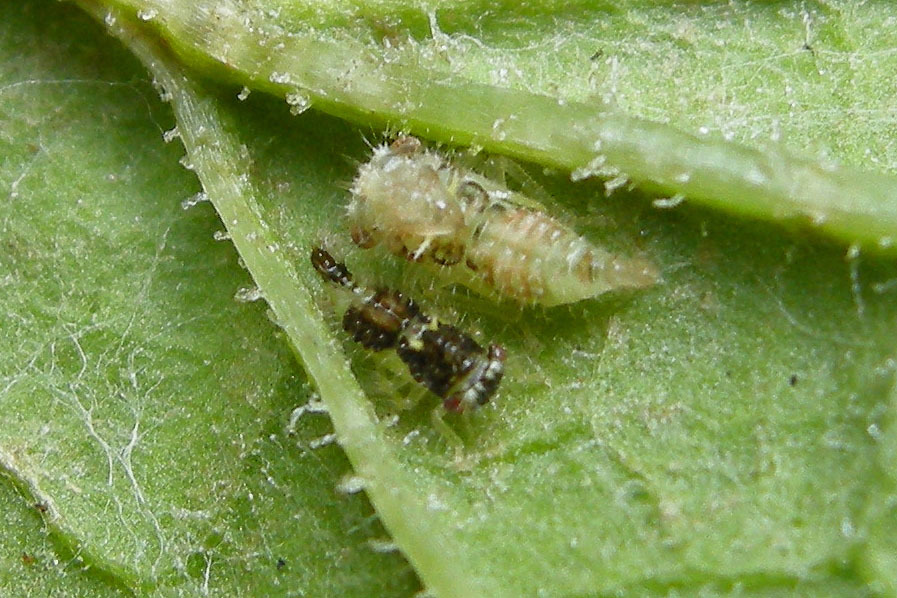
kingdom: Animalia
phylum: Arthropoda
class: Insecta
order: Hemiptera
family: Membracidae
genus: Entylia
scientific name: Entylia carinata
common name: Keeled treehopper
